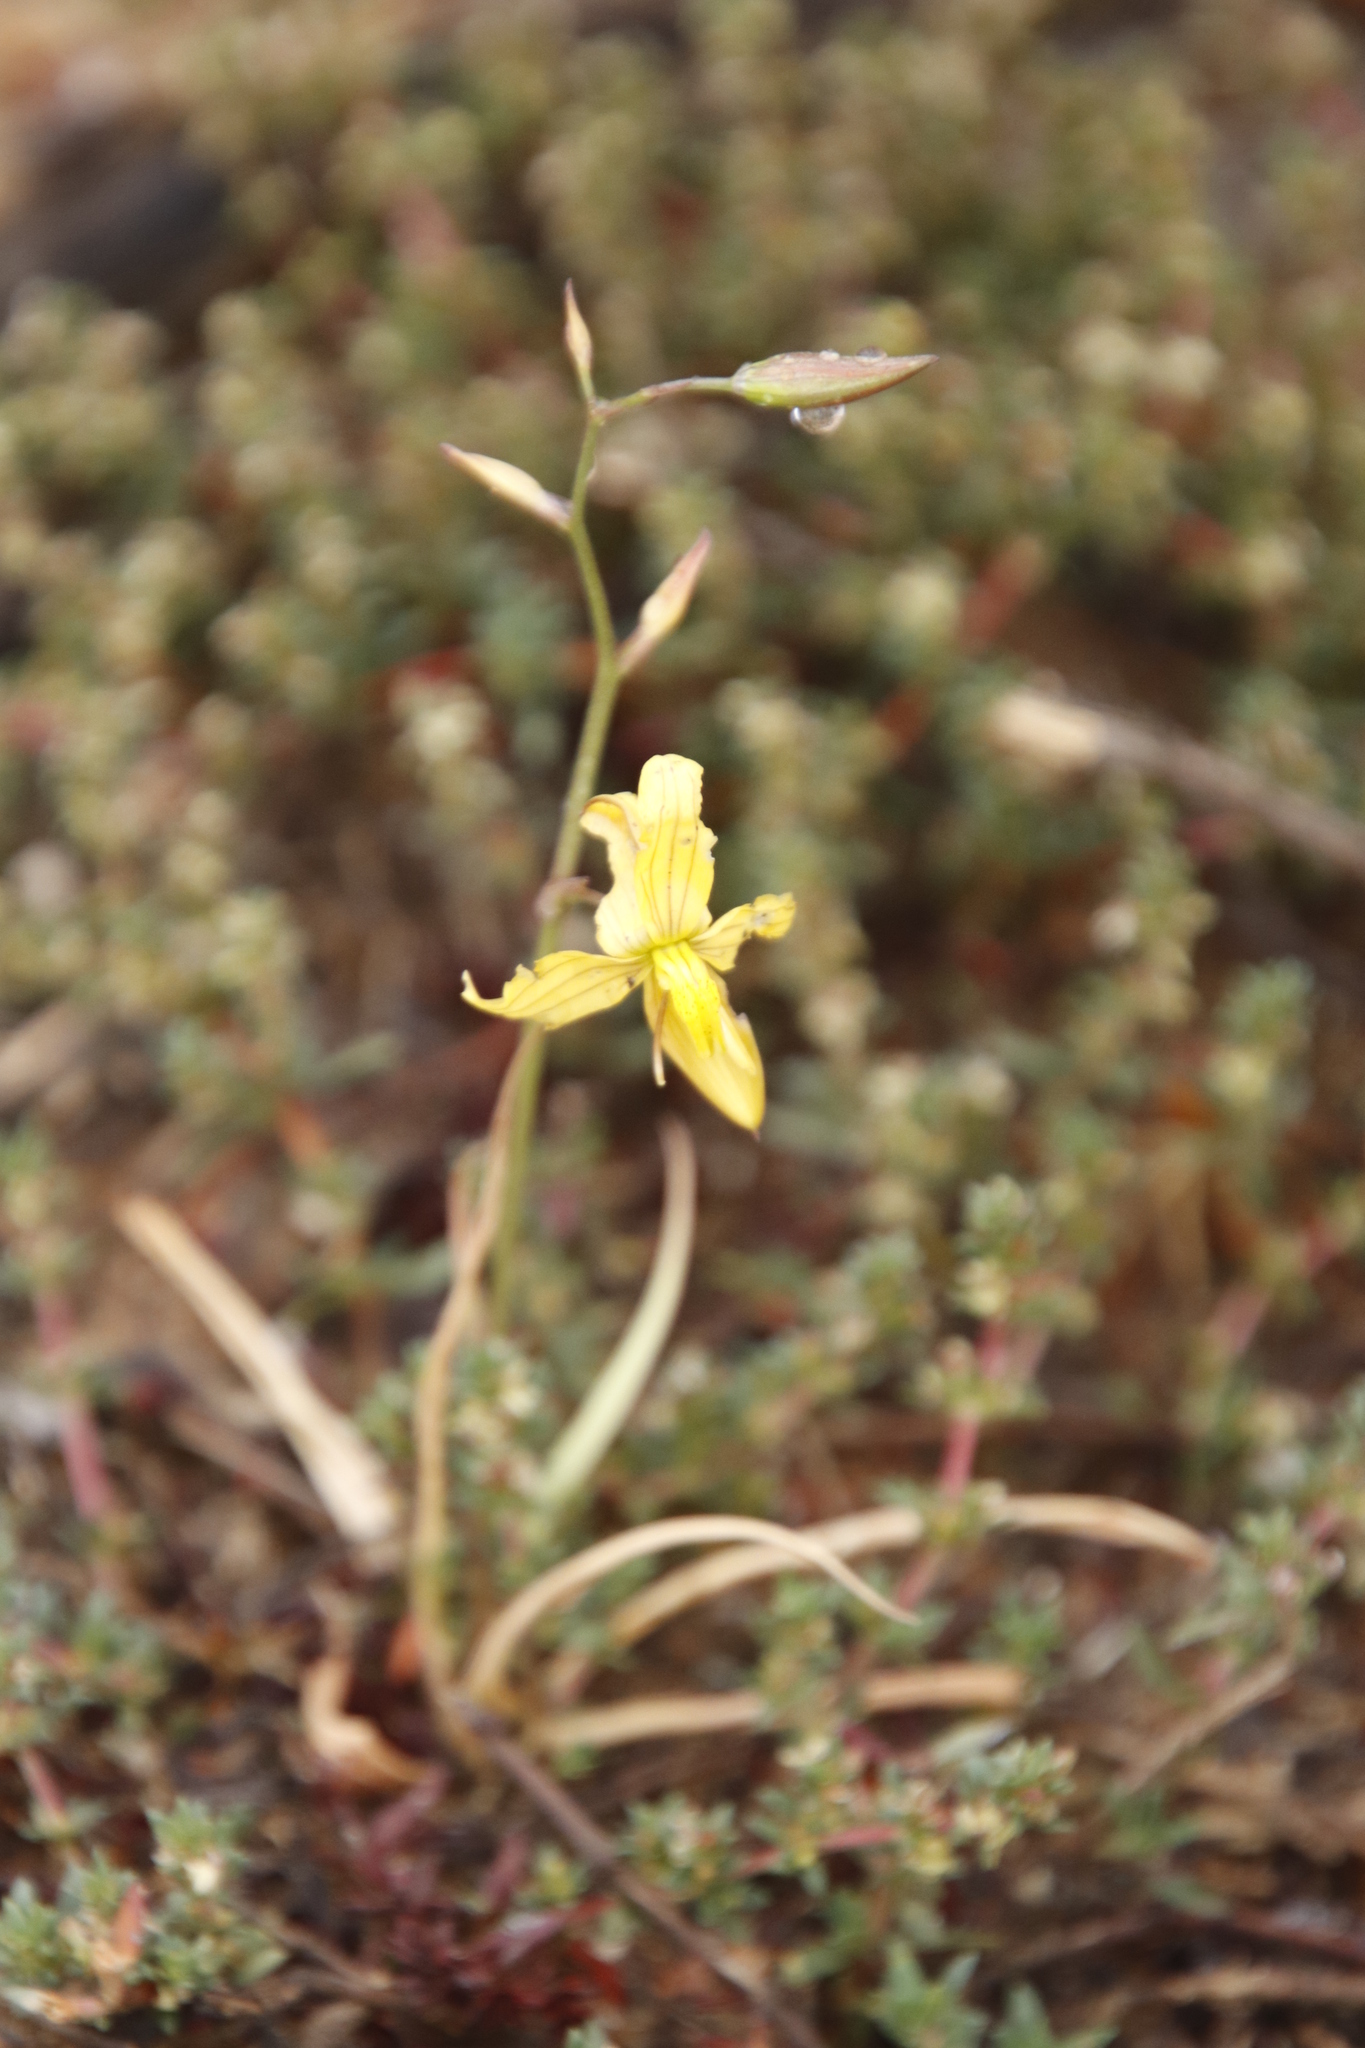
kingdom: Plantae
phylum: Tracheophyta
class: Liliopsida
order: Asparagales
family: Tecophilaeaceae
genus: Cyanella
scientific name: Cyanella lutea
